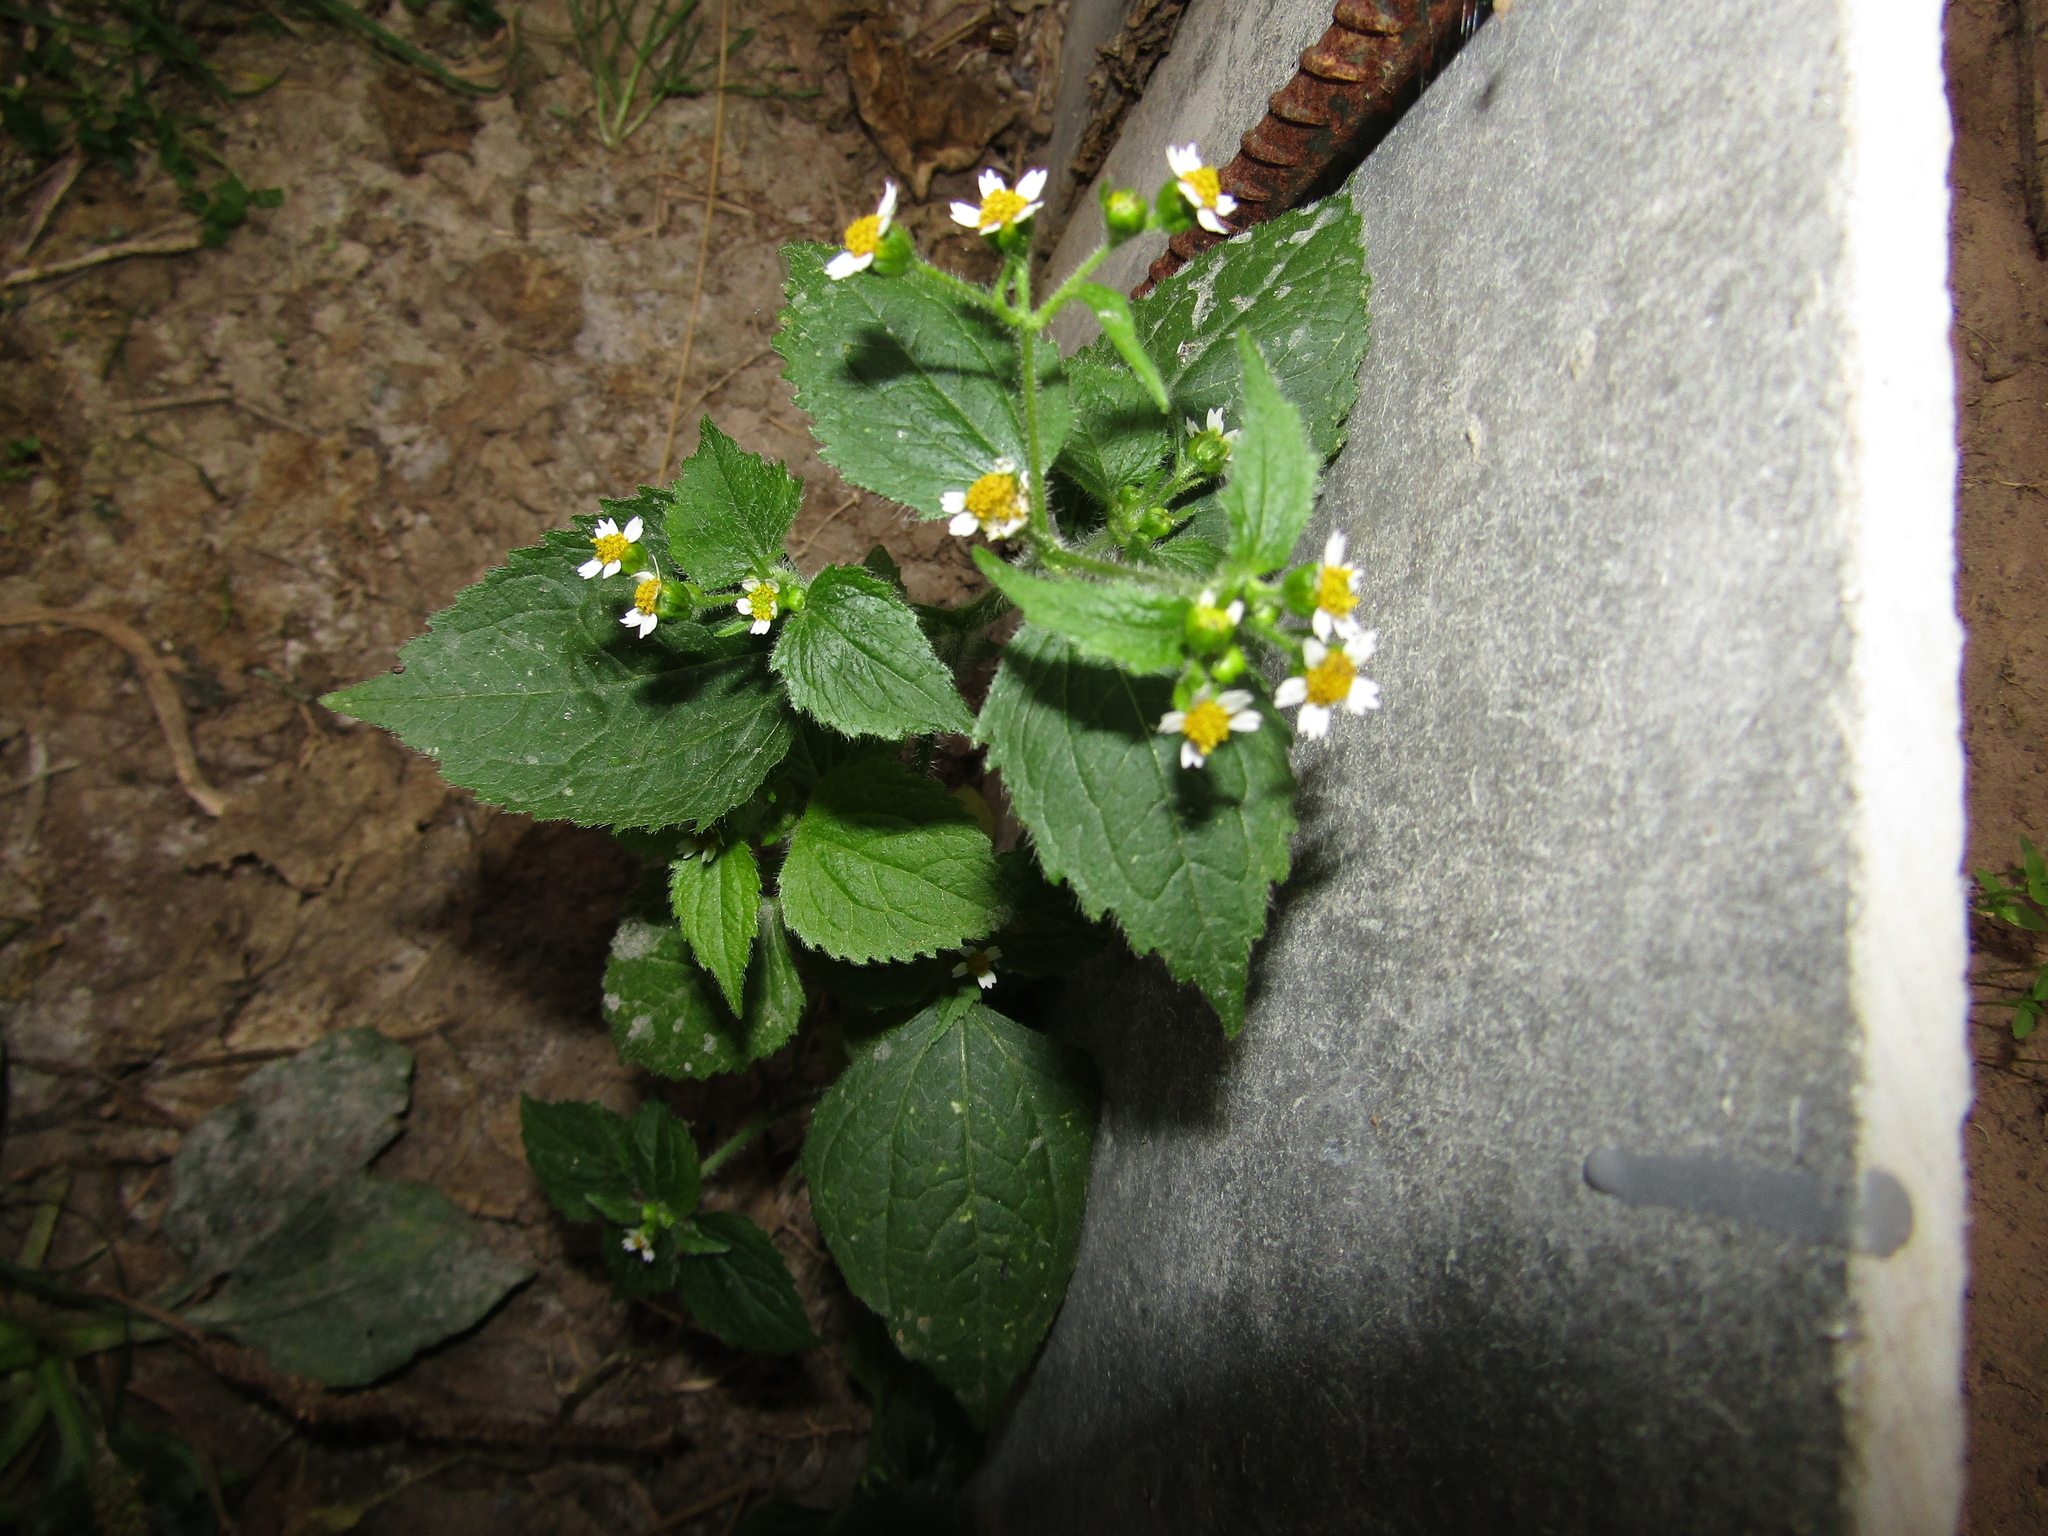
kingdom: Plantae
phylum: Tracheophyta
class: Magnoliopsida
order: Asterales
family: Asteraceae
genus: Galinsoga
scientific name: Galinsoga quadriradiata
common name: Shaggy soldier
